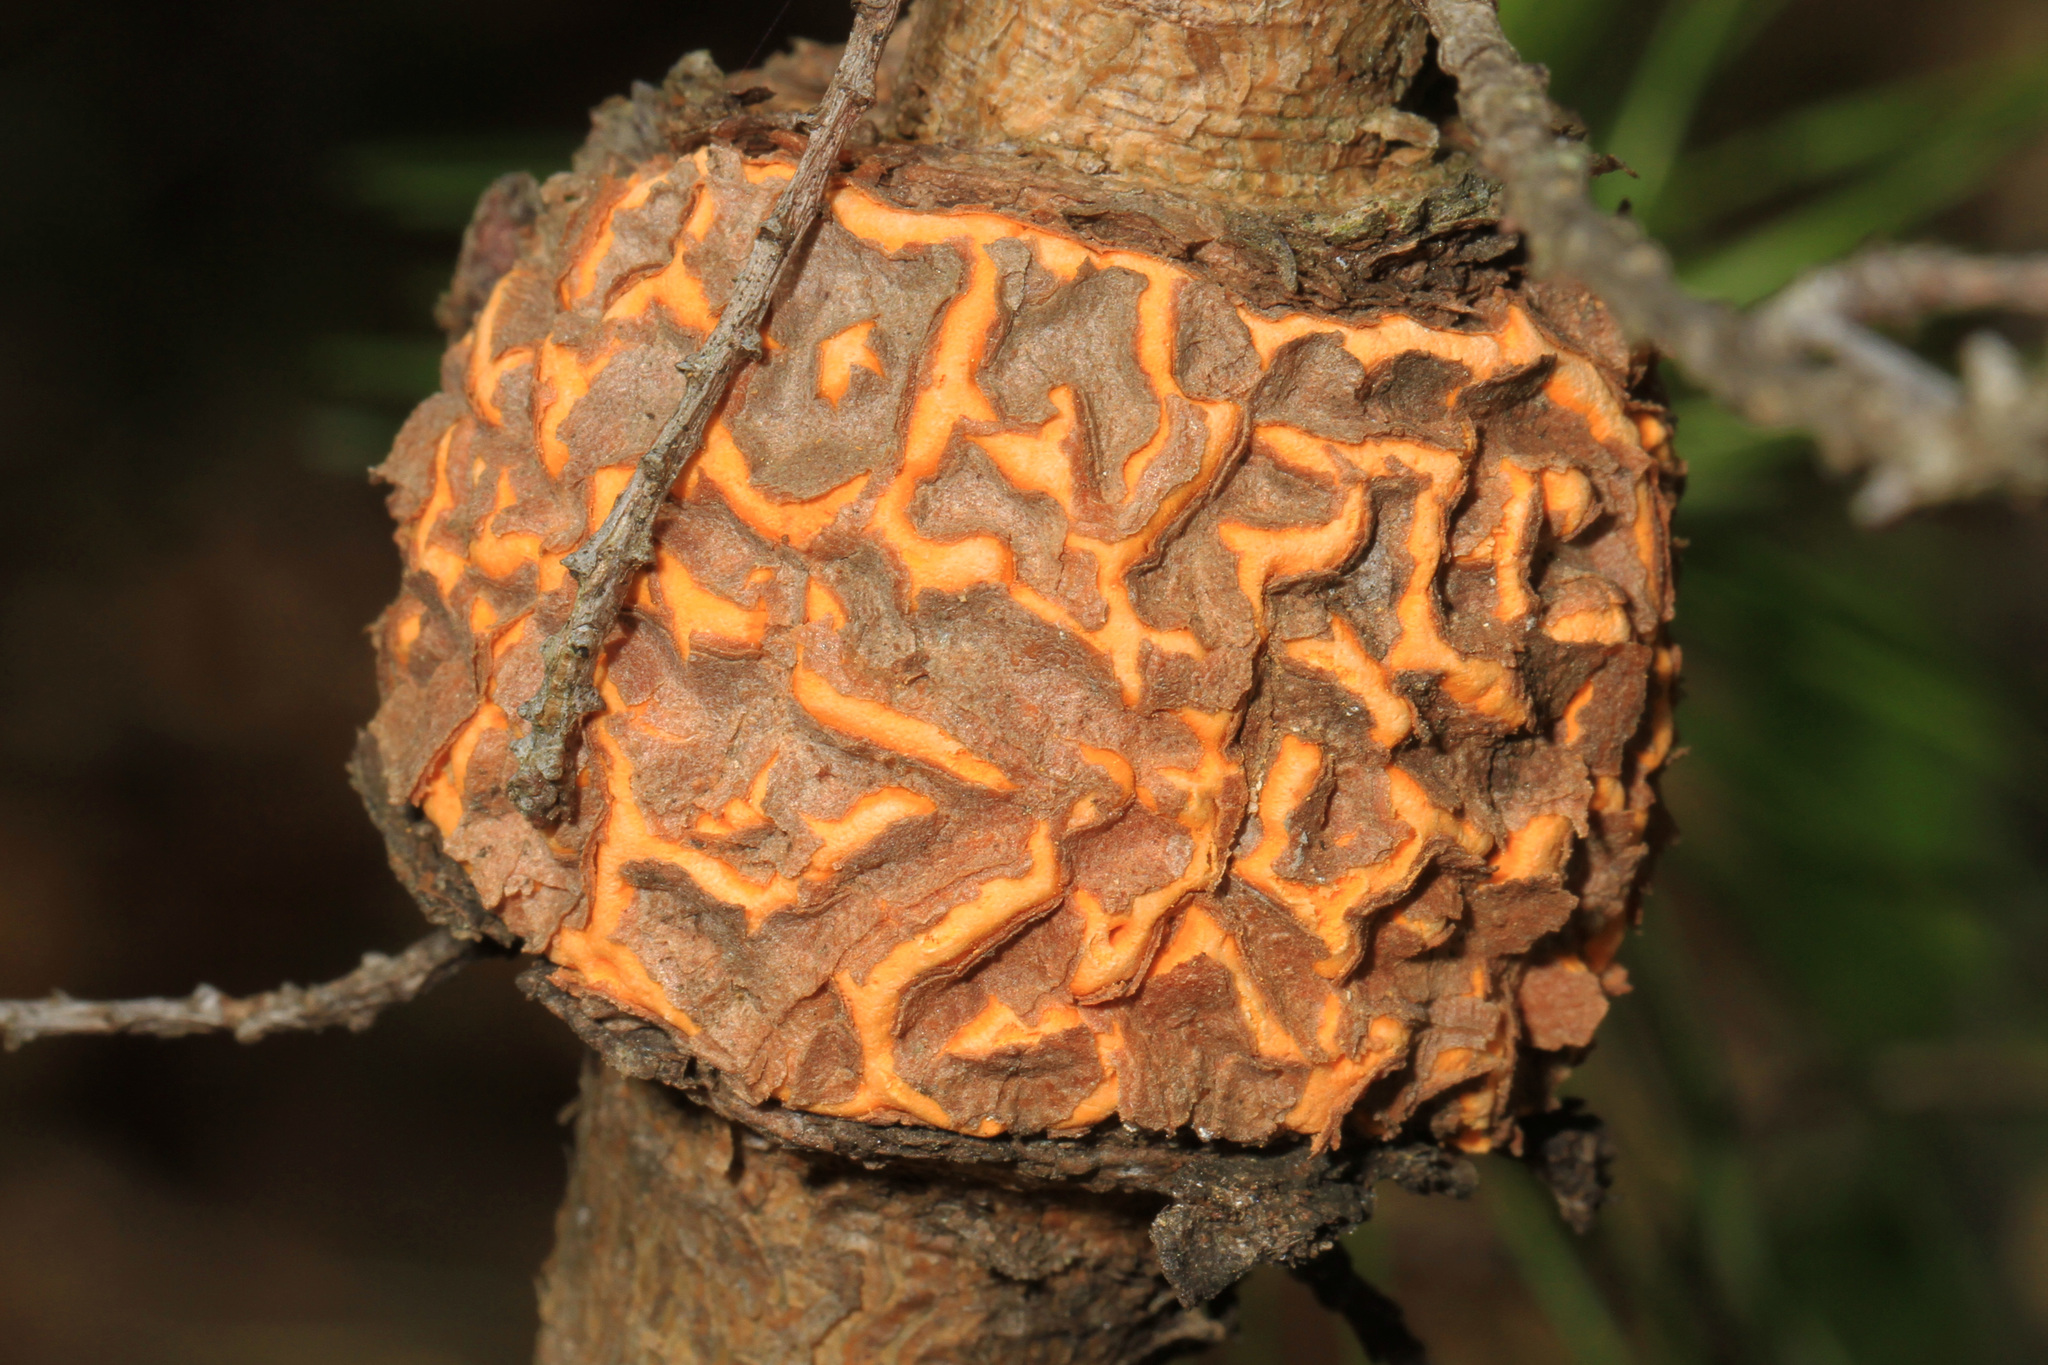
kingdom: Fungi
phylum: Basidiomycota
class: Pucciniomycetes
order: Pucciniales
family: Cronartiaceae
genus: Cronartium
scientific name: Cronartium quercuum
